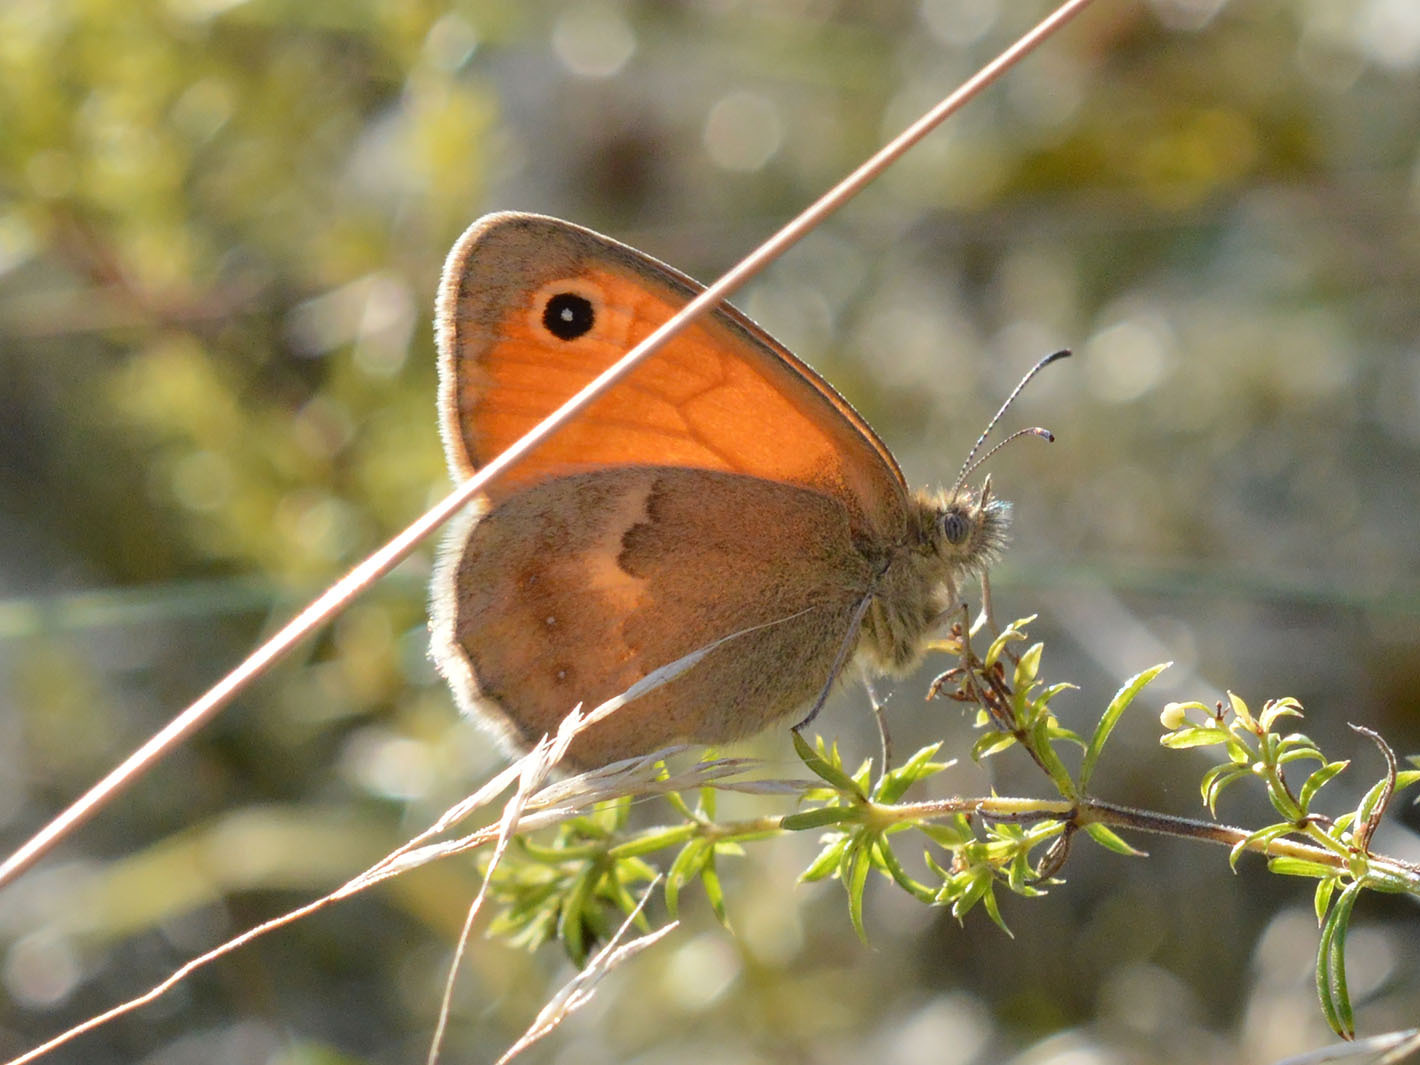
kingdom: Animalia
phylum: Arthropoda
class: Insecta
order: Lepidoptera
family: Nymphalidae
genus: Coenonympha
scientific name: Coenonympha pamphilus
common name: Small heath
